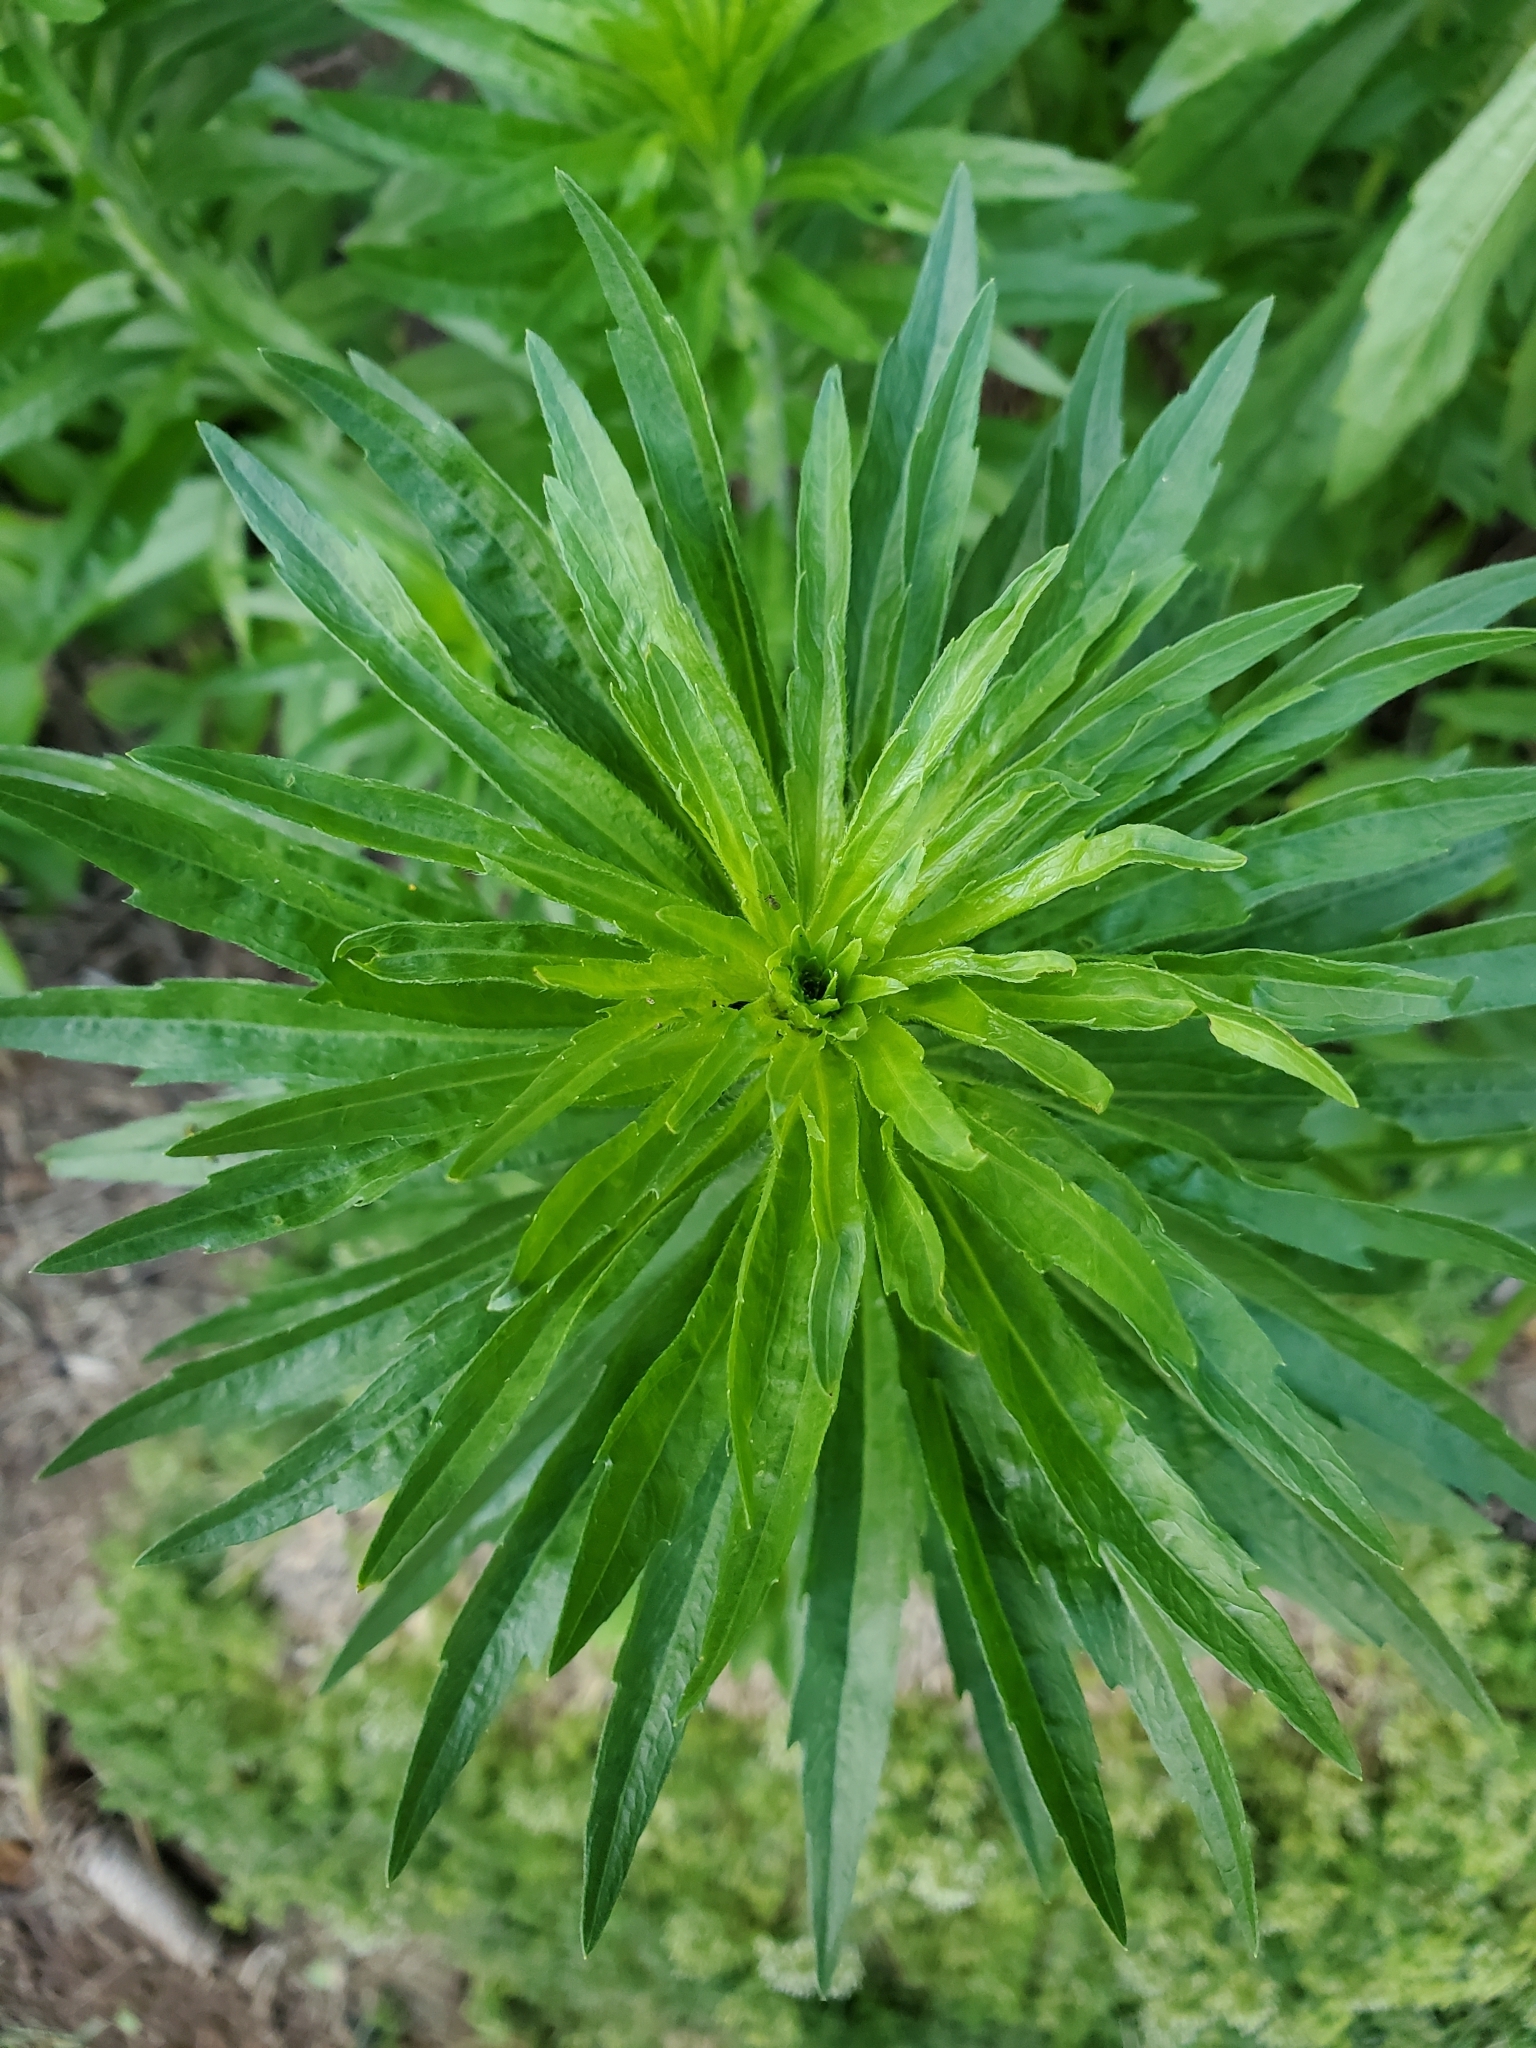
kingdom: Plantae
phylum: Tracheophyta
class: Magnoliopsida
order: Asterales
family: Asteraceae
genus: Erigeron
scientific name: Erigeron canadensis
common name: Canadian fleabane
